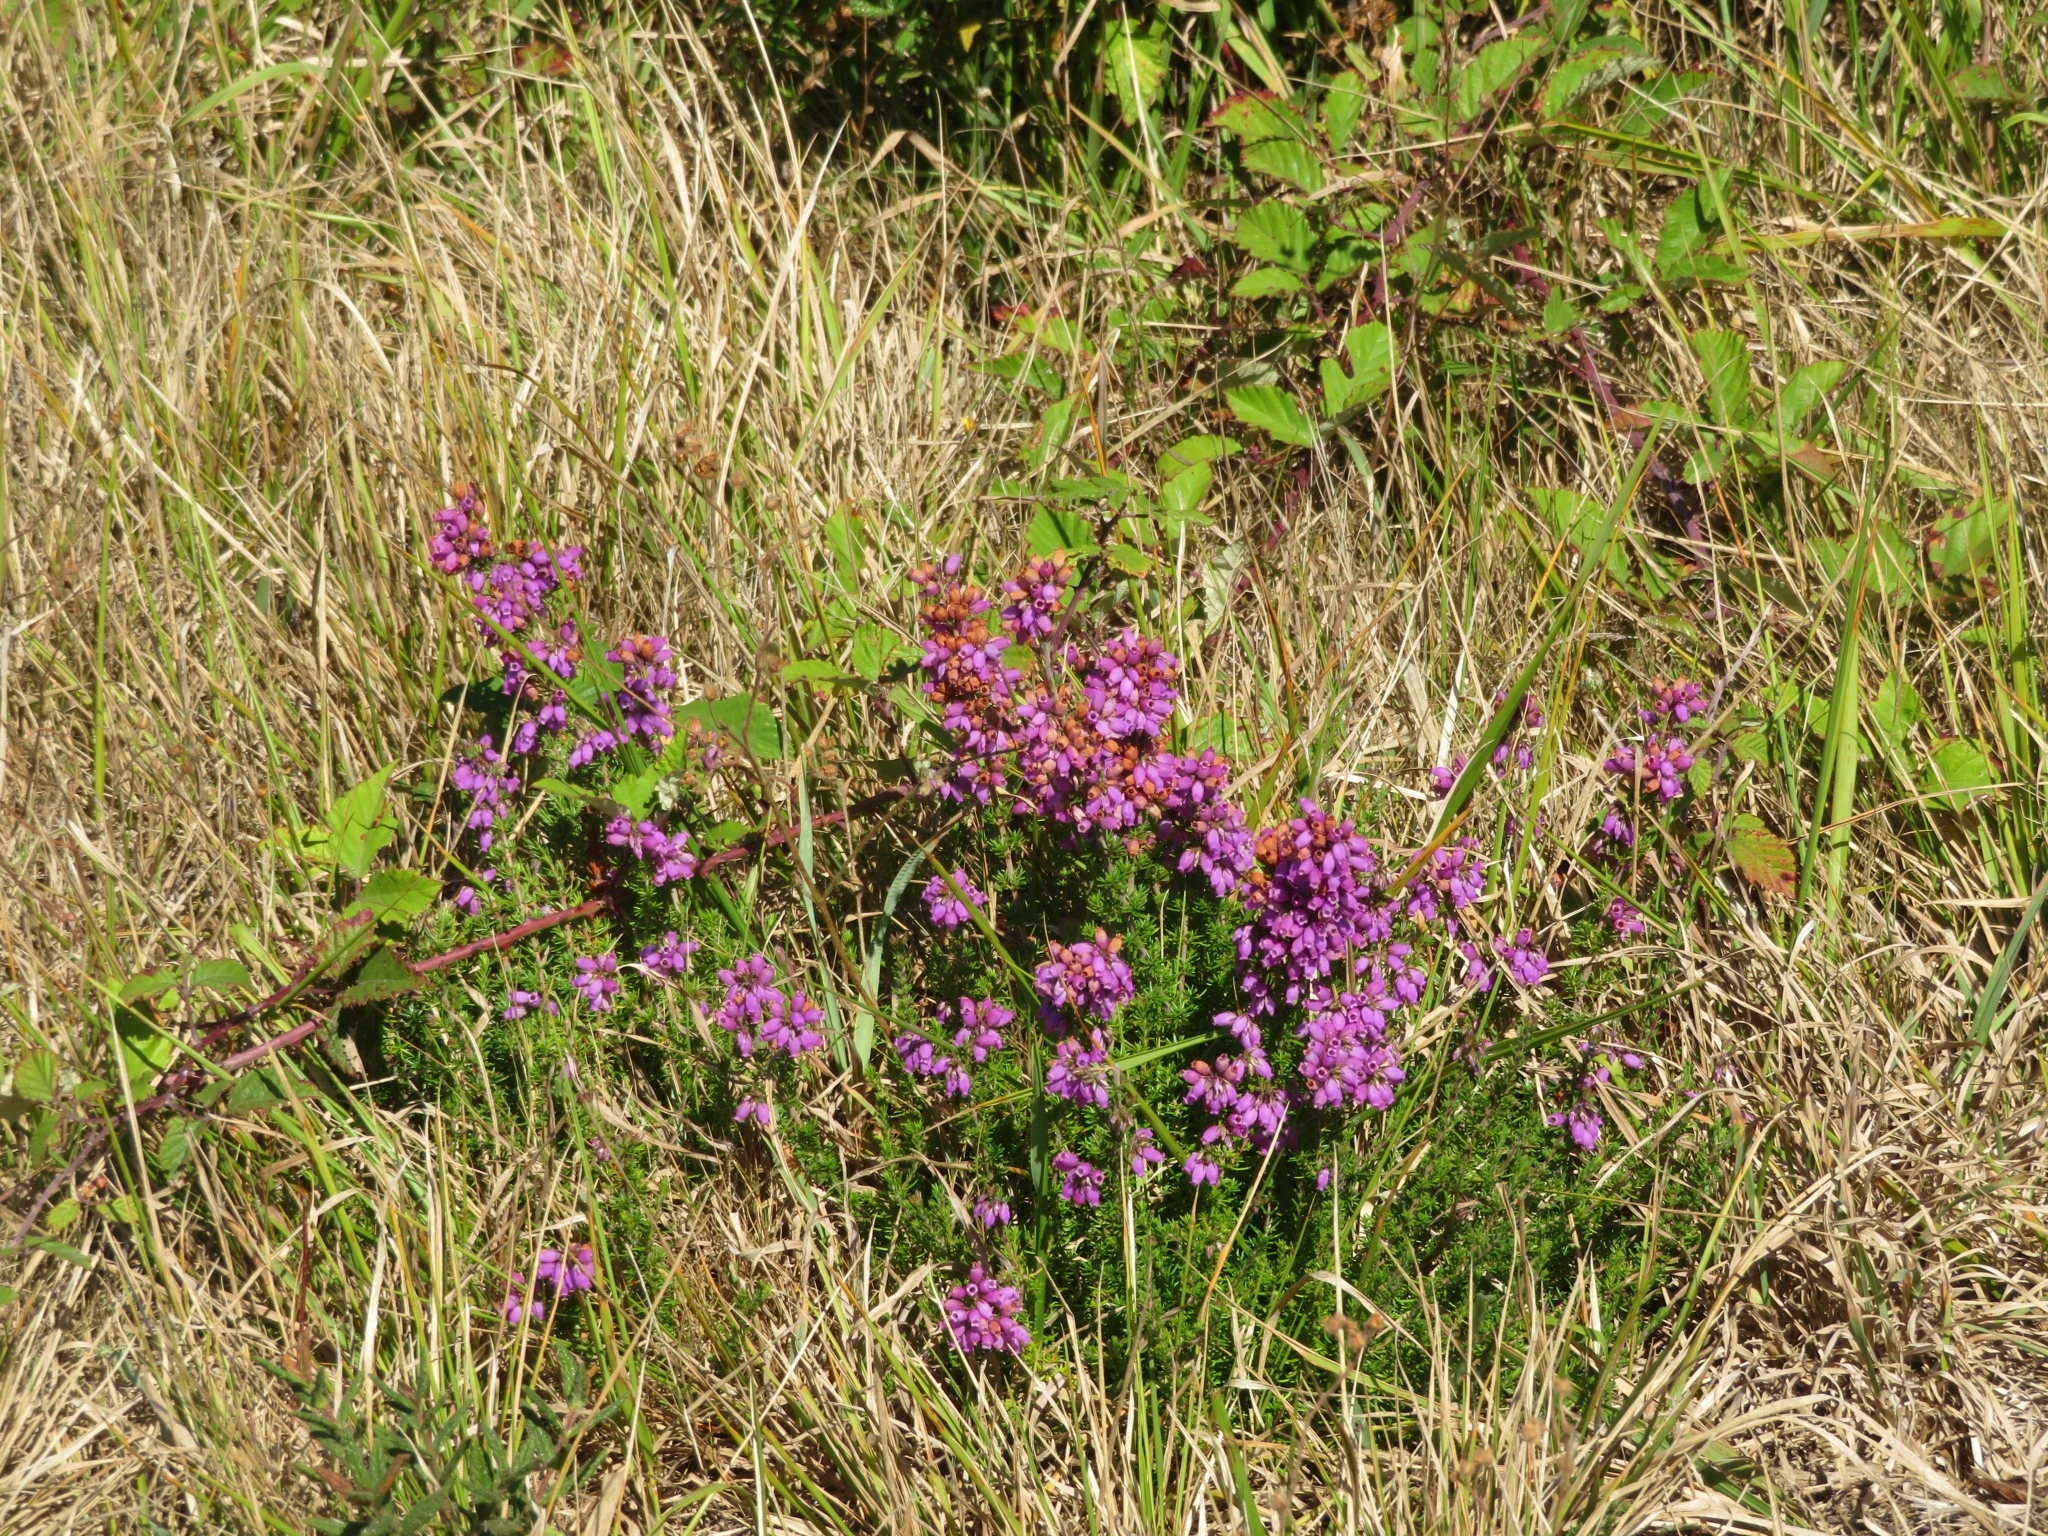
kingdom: Plantae
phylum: Tracheophyta
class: Magnoliopsida
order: Ericales
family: Ericaceae
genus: Erica
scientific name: Erica cinerea
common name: Bell heather
